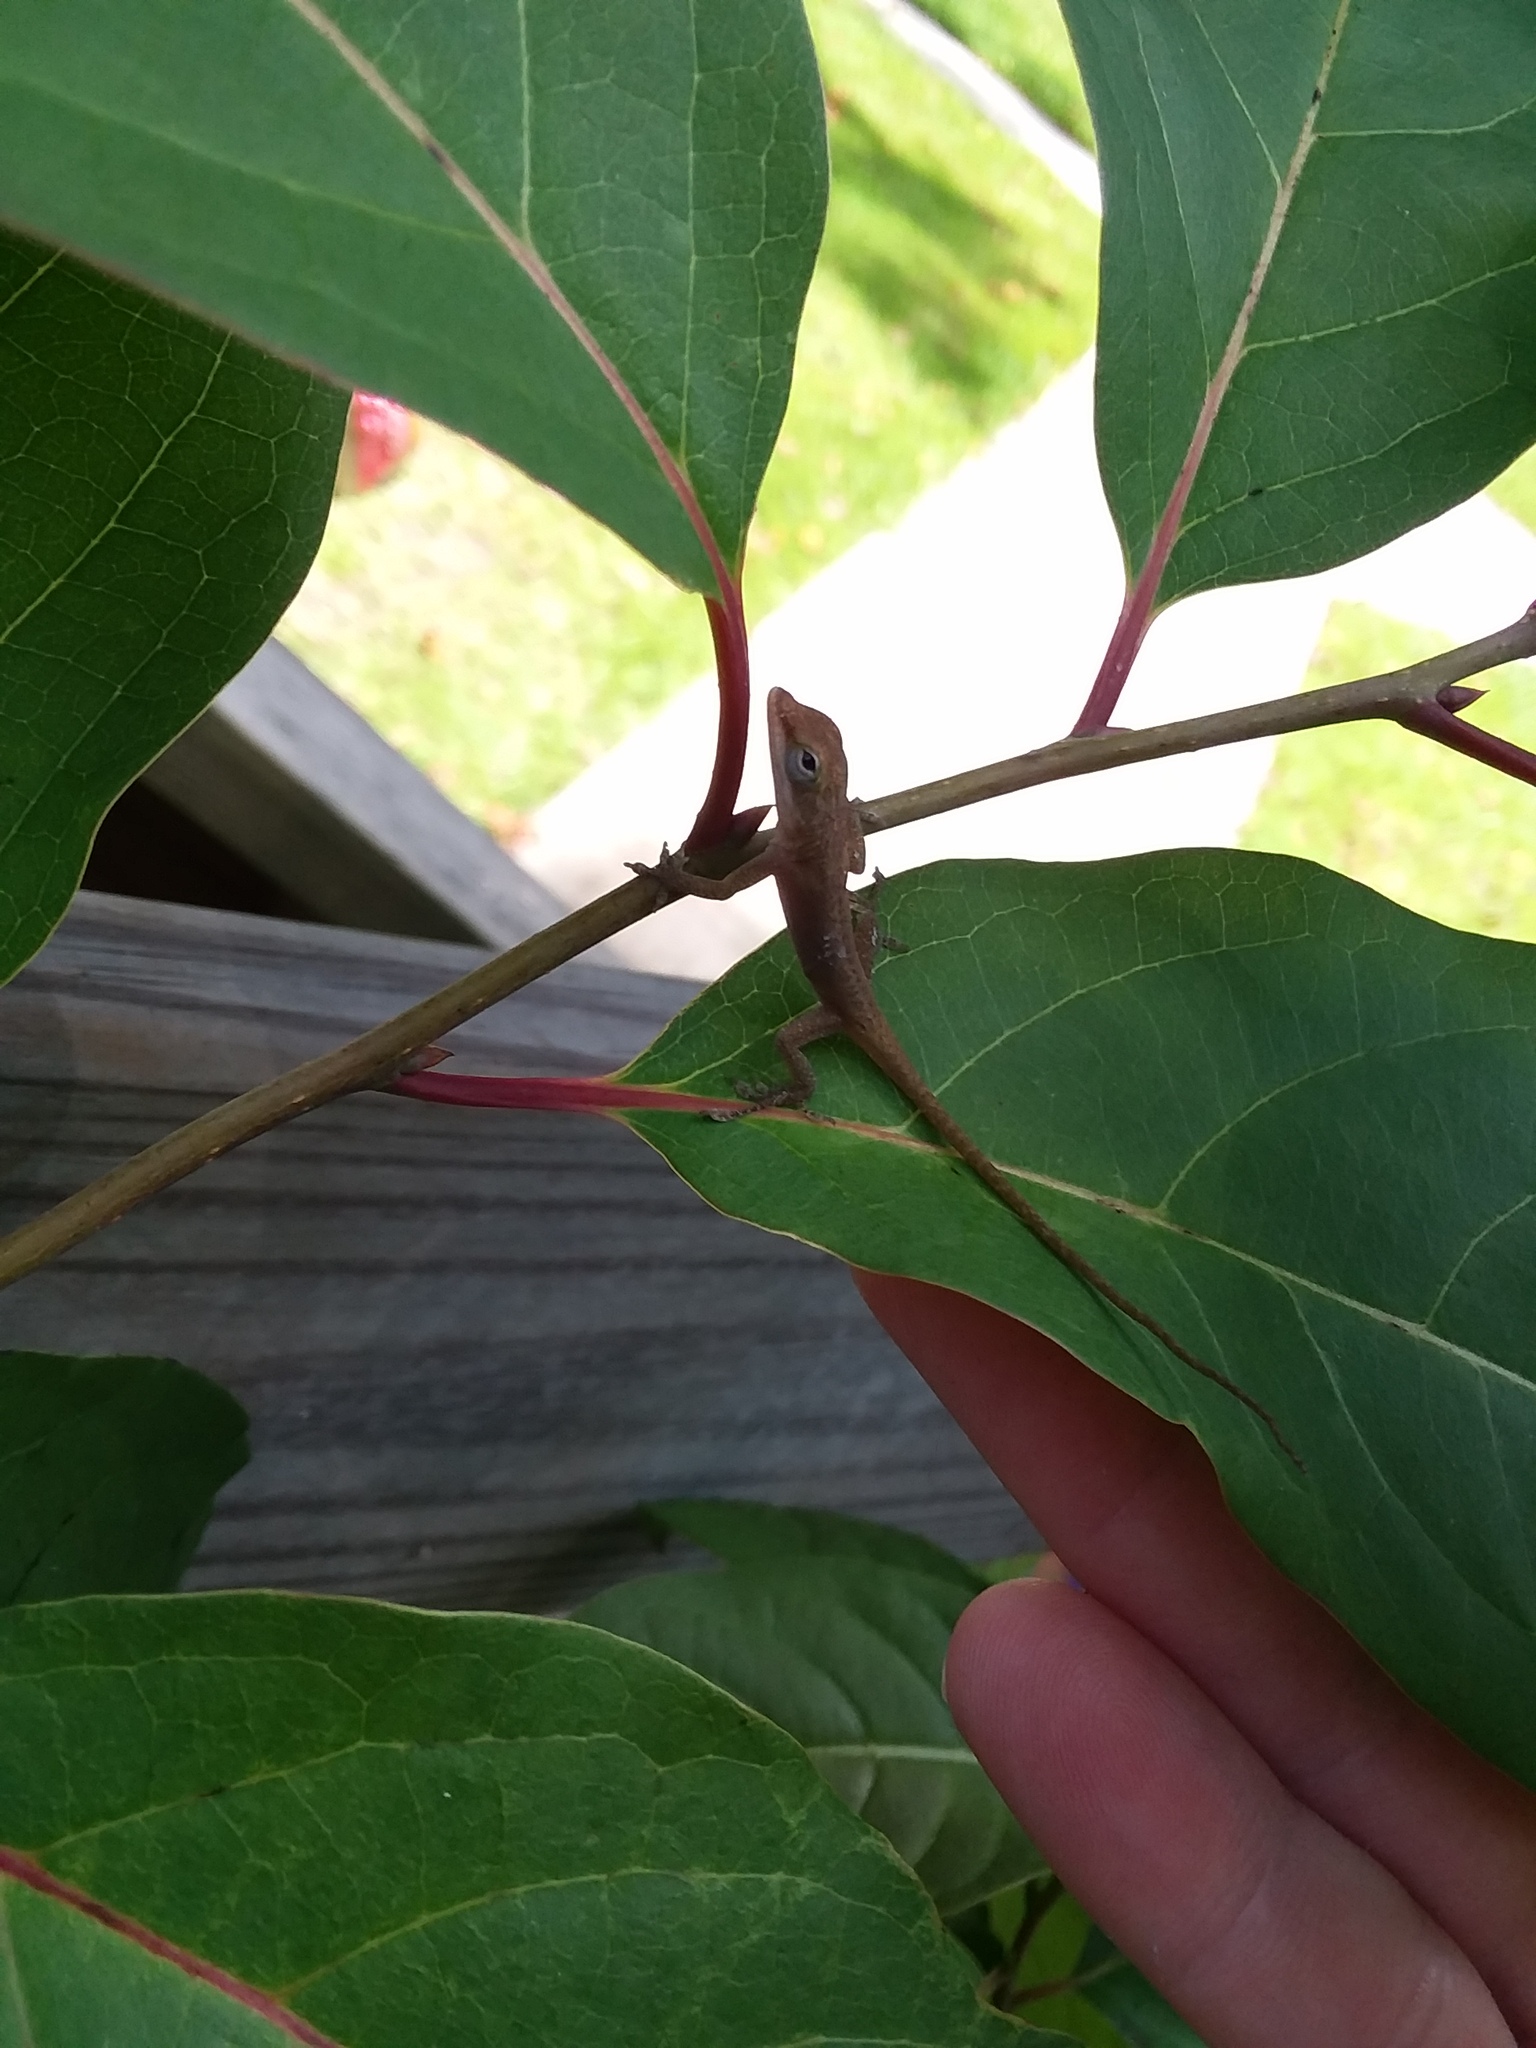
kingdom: Animalia
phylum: Chordata
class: Squamata
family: Dactyloidae
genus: Anolis
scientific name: Anolis carolinensis
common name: Green anole
